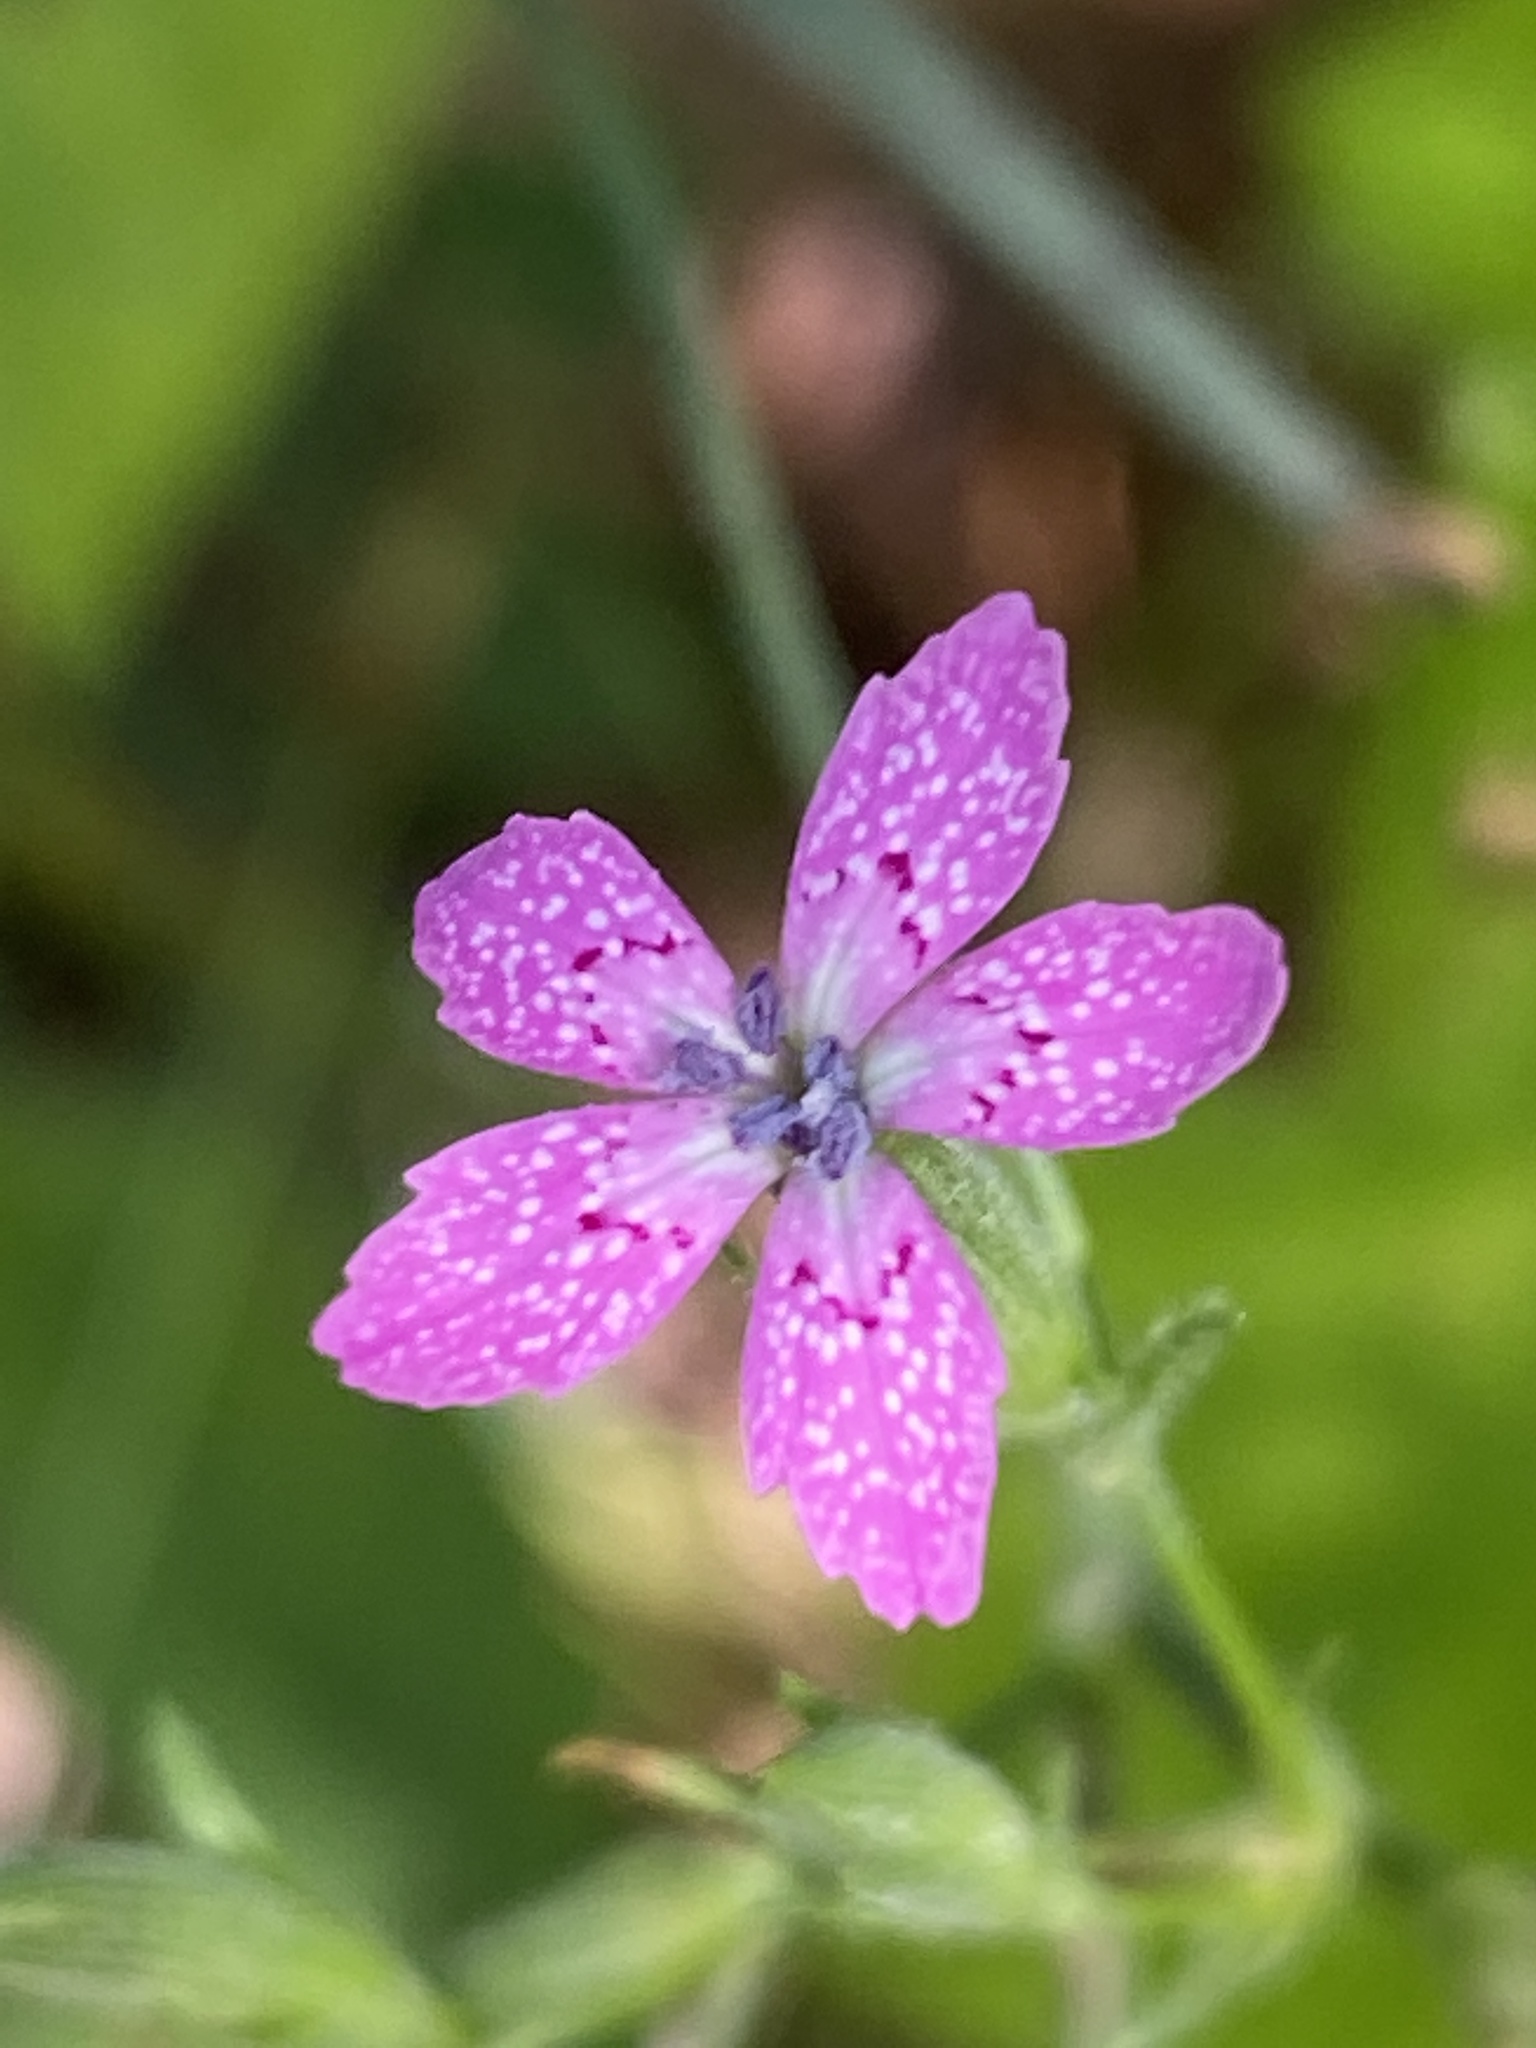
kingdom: Plantae
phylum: Tracheophyta
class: Magnoliopsida
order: Caryophyllales
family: Caryophyllaceae
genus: Dianthus
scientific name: Dianthus armeria
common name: Deptford pink
